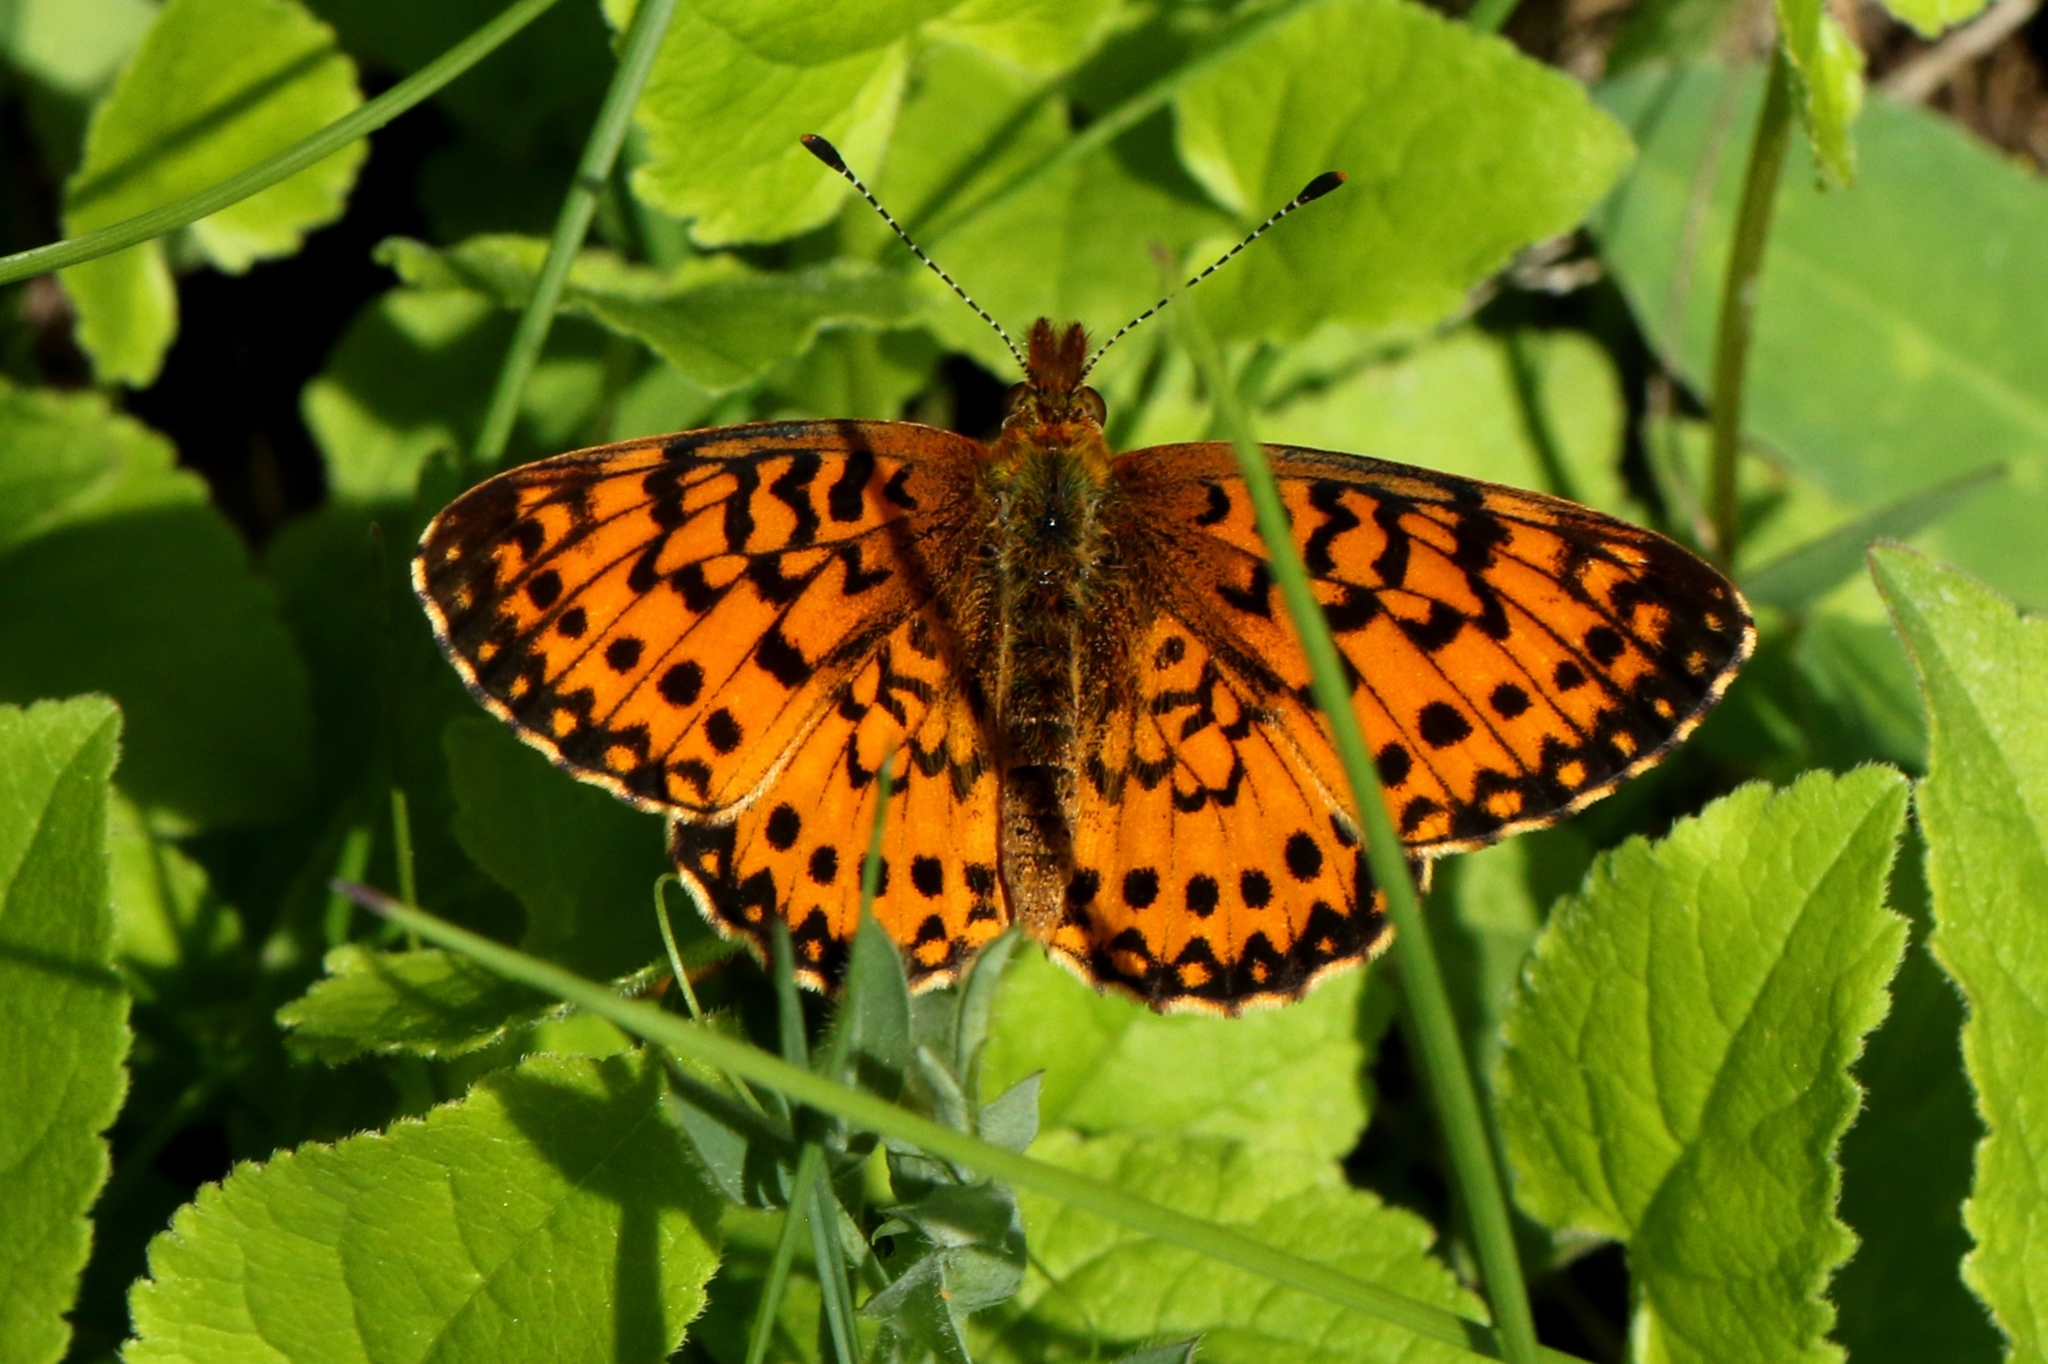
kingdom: Animalia
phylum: Arthropoda
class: Insecta
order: Lepidoptera
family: Nymphalidae
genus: Boloria
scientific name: Boloria
